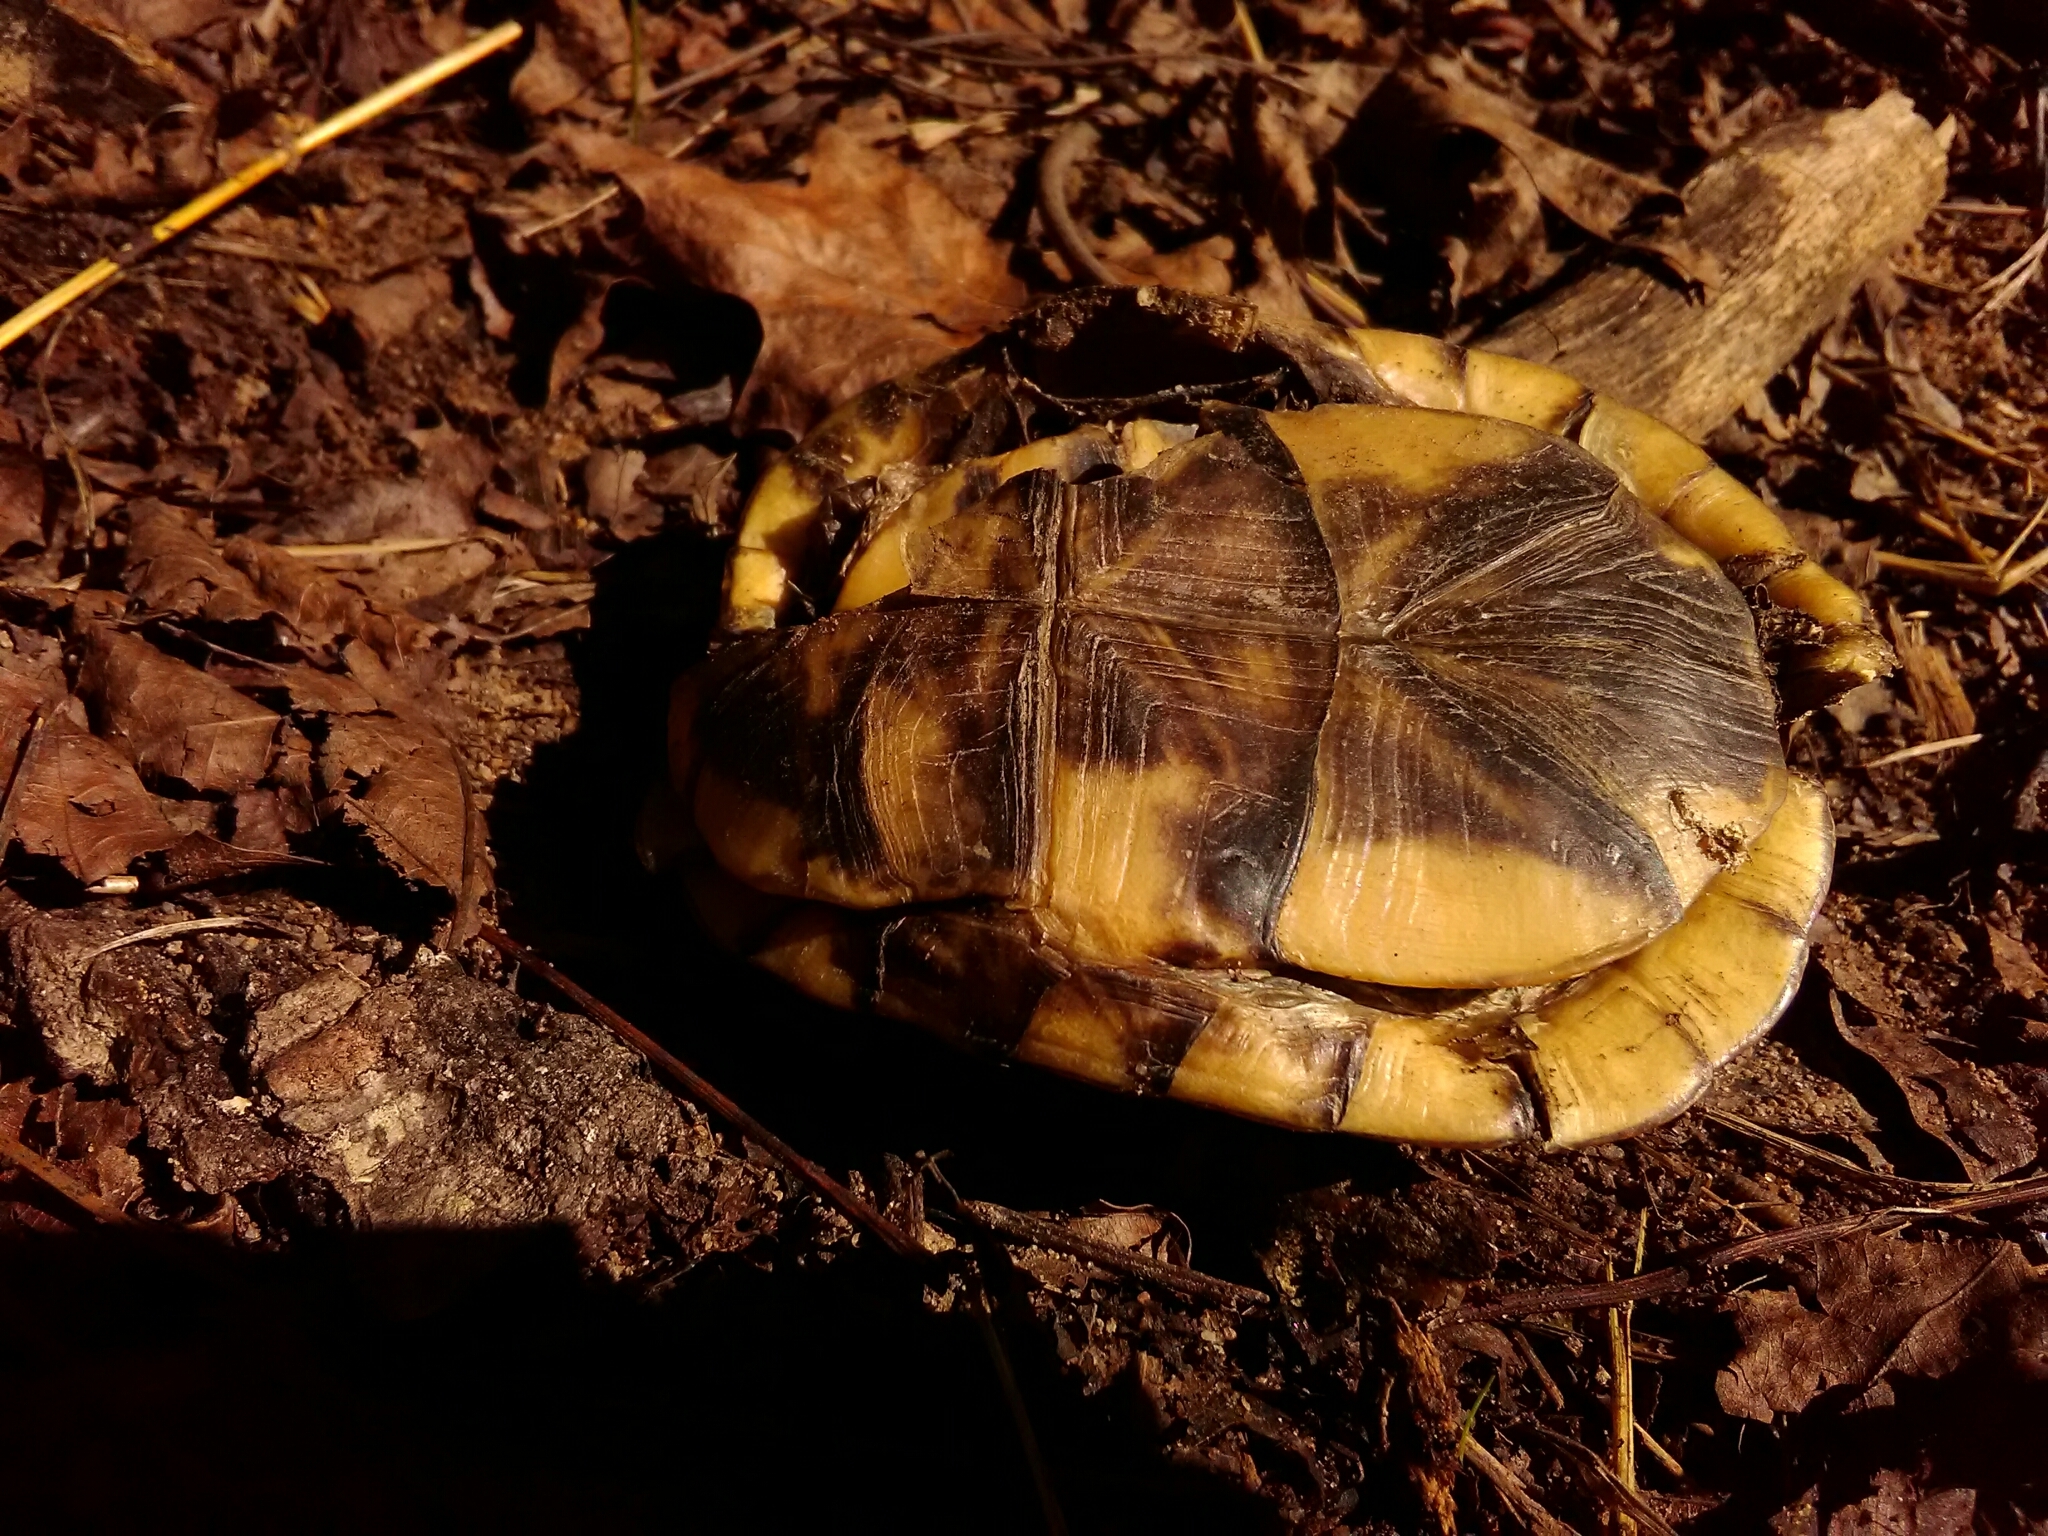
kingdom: Animalia
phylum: Chordata
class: Testudines
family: Emydidae
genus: Terrapene
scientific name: Terrapene carolina
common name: Common box turtle
